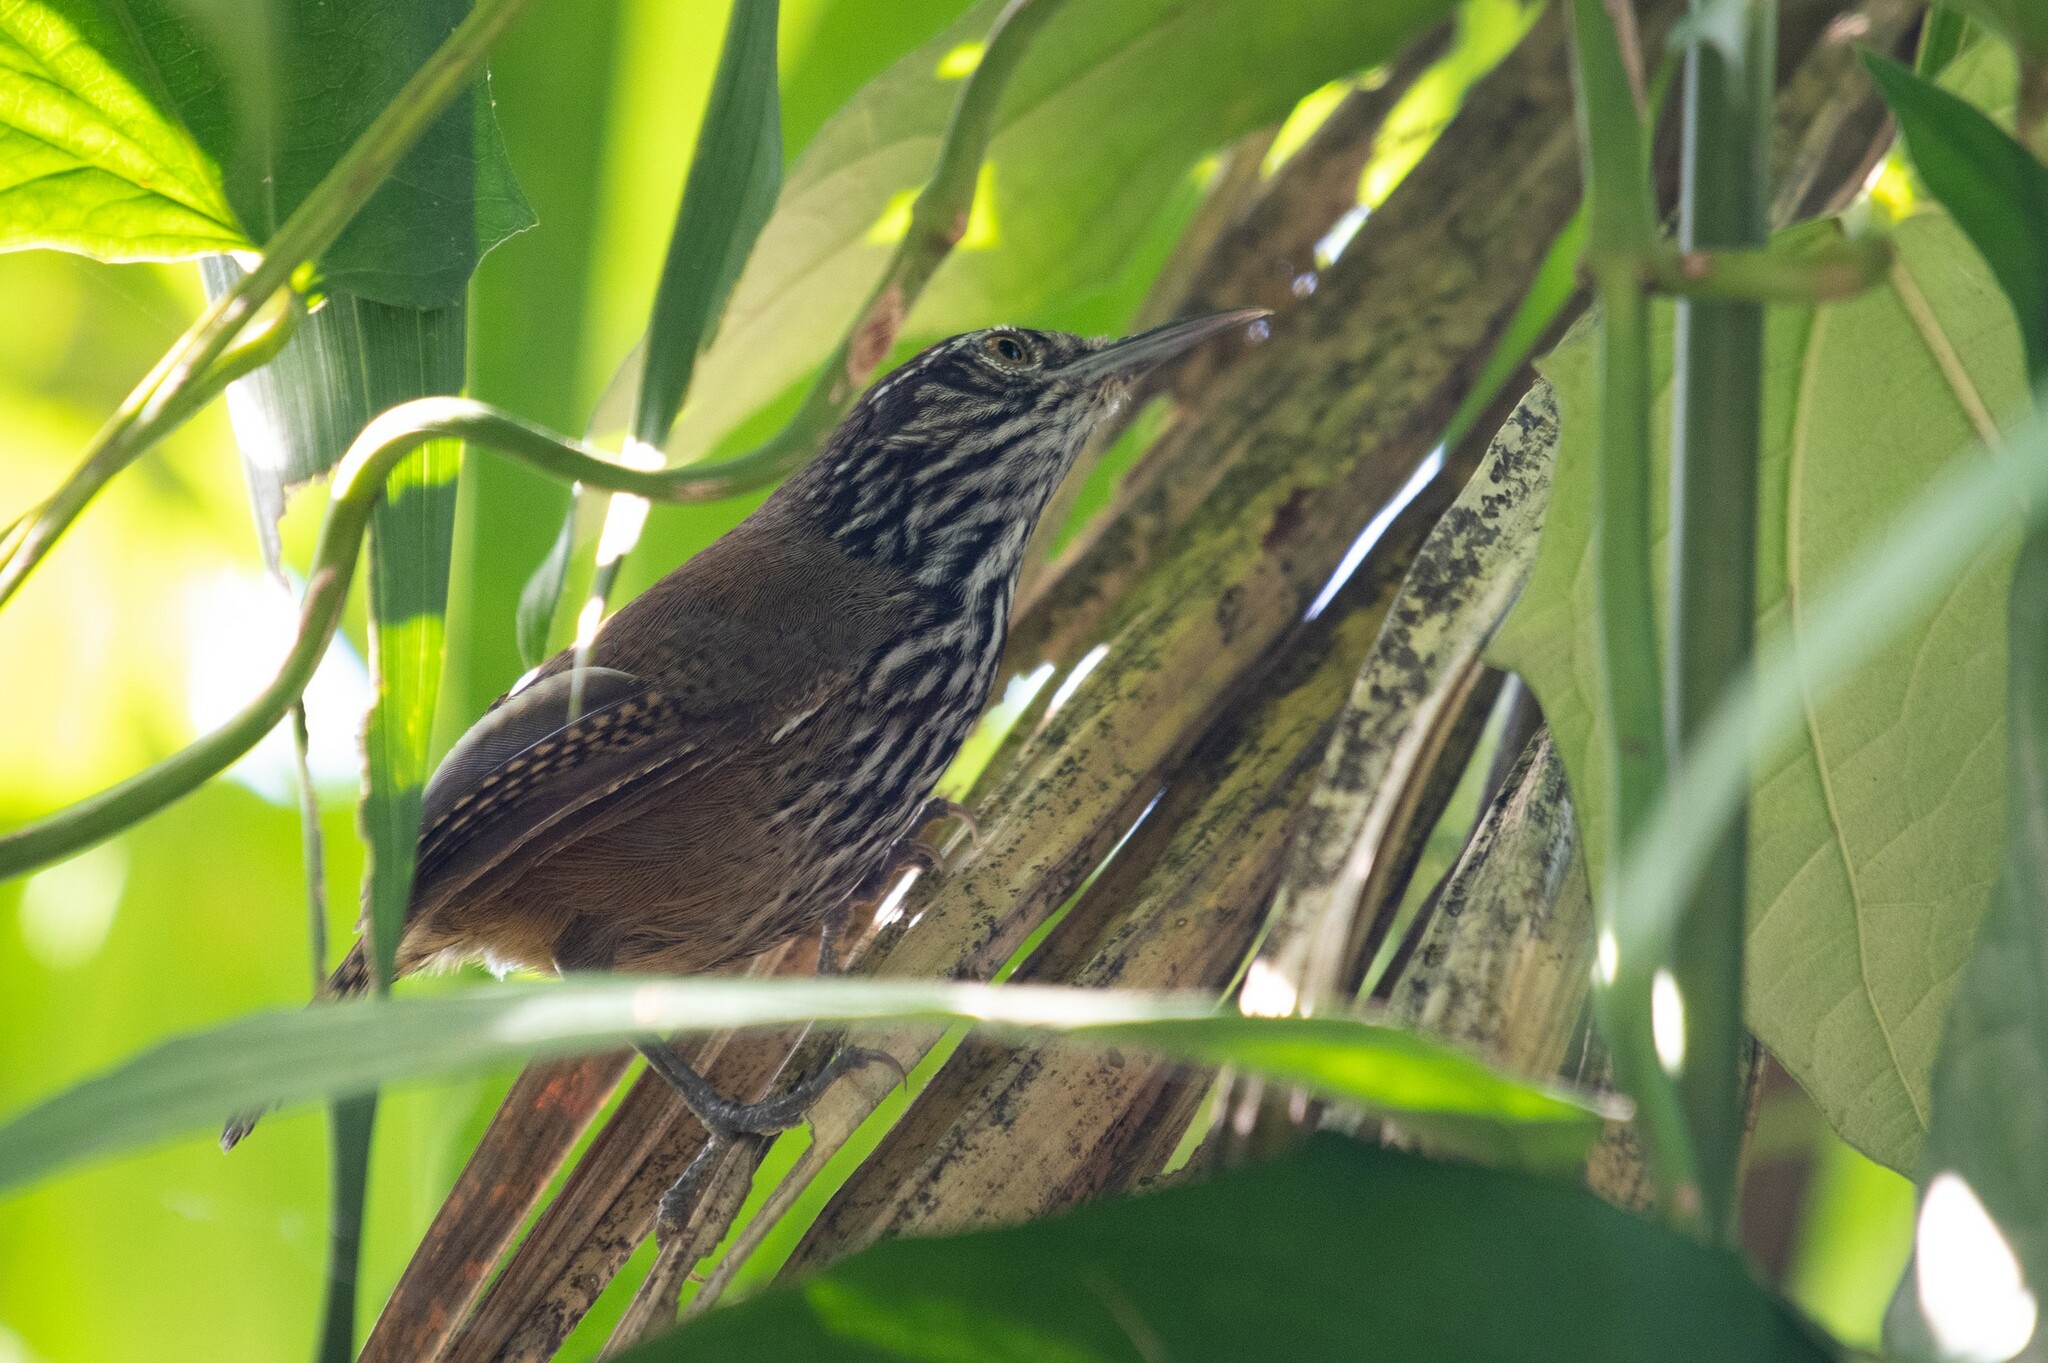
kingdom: Animalia
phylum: Chordata
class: Aves
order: Passeriformes
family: Troglodytidae
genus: Cantorchilus
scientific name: Cantorchilus thoracicus
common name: Stripe-breasted wren
